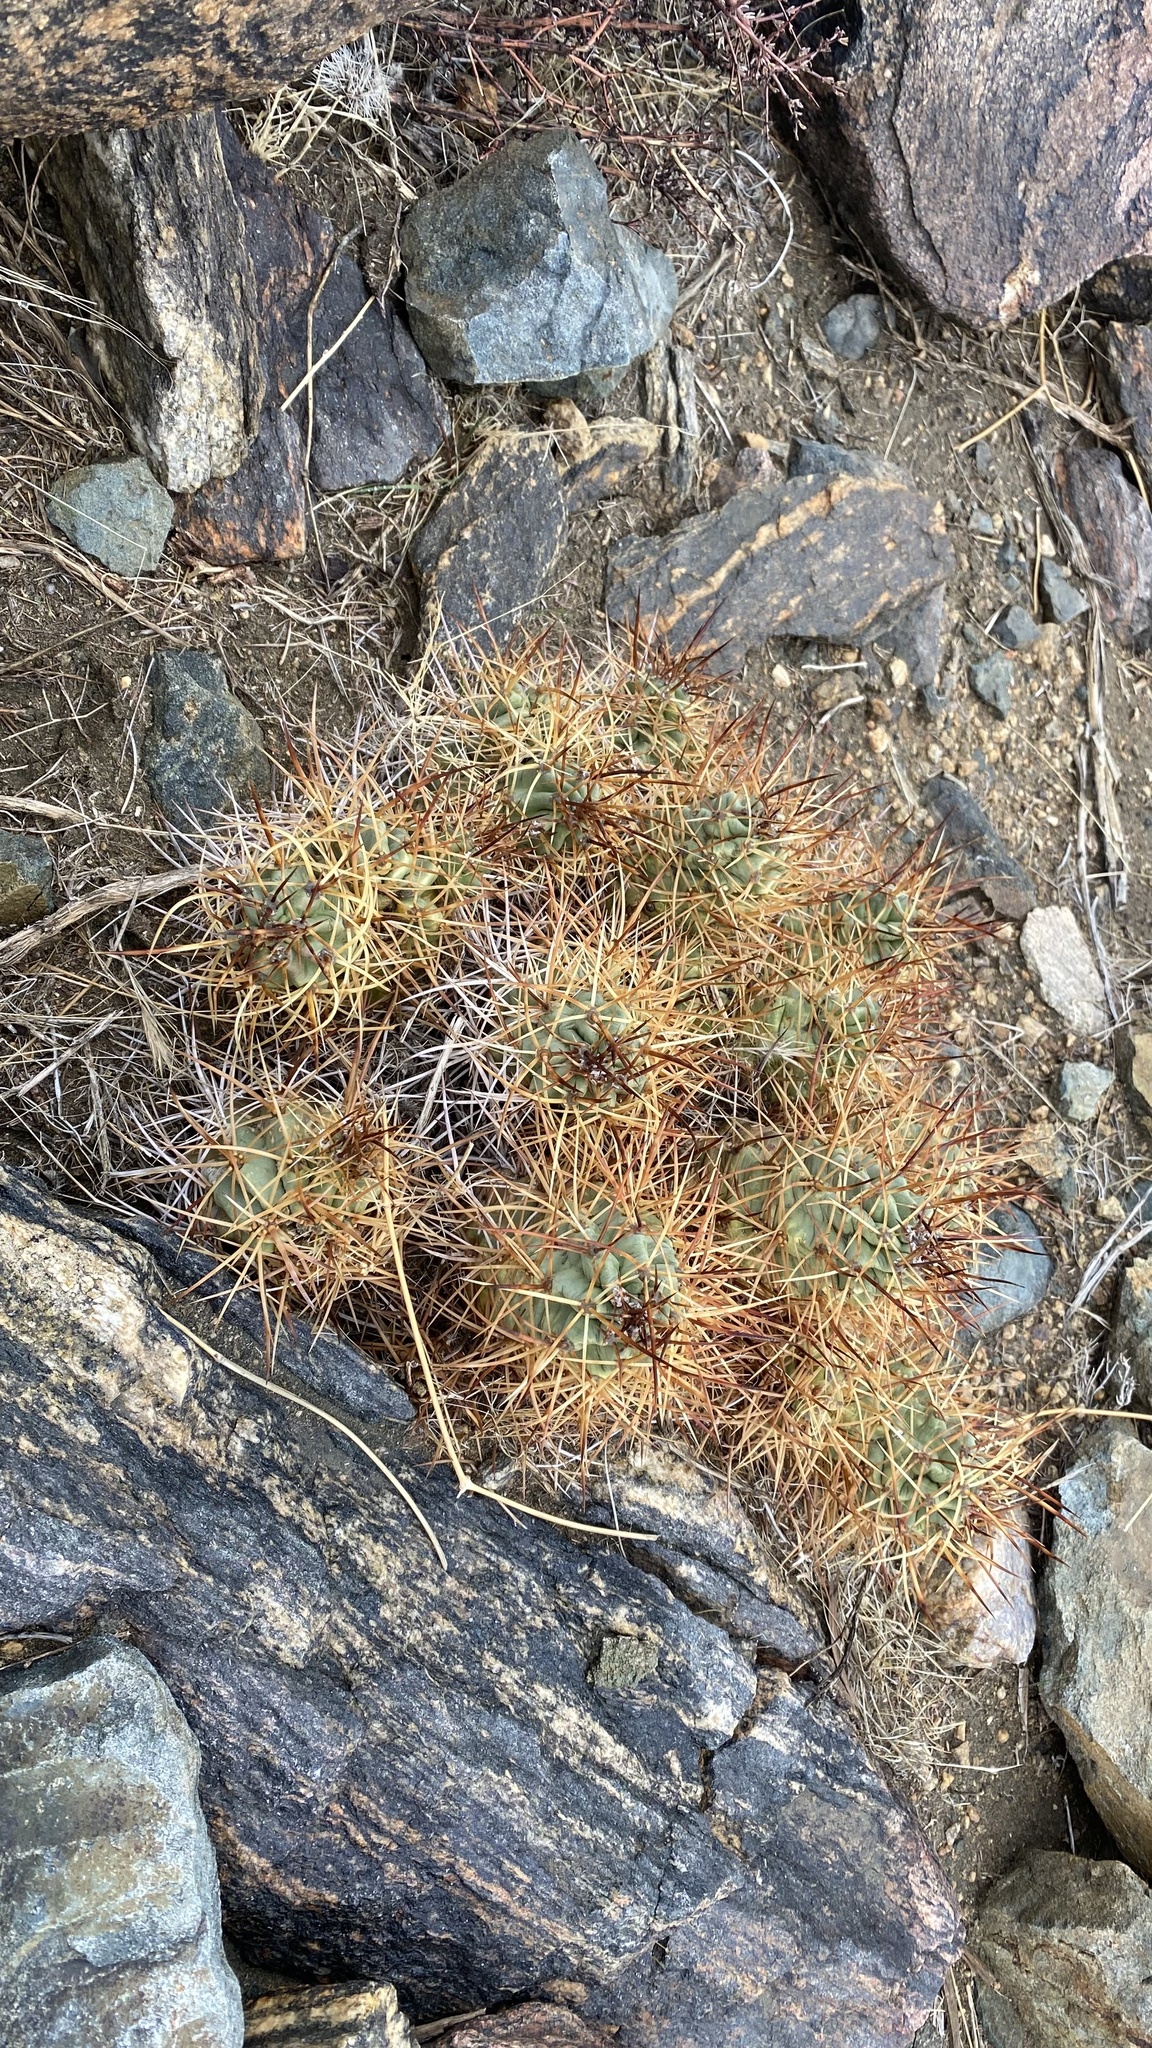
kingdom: Plantae
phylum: Tracheophyta
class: Magnoliopsida
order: Caryophyllales
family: Cactaceae
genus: Echinocereus
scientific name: Echinocereus triglochidiatus
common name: Claretcup hedgehog
